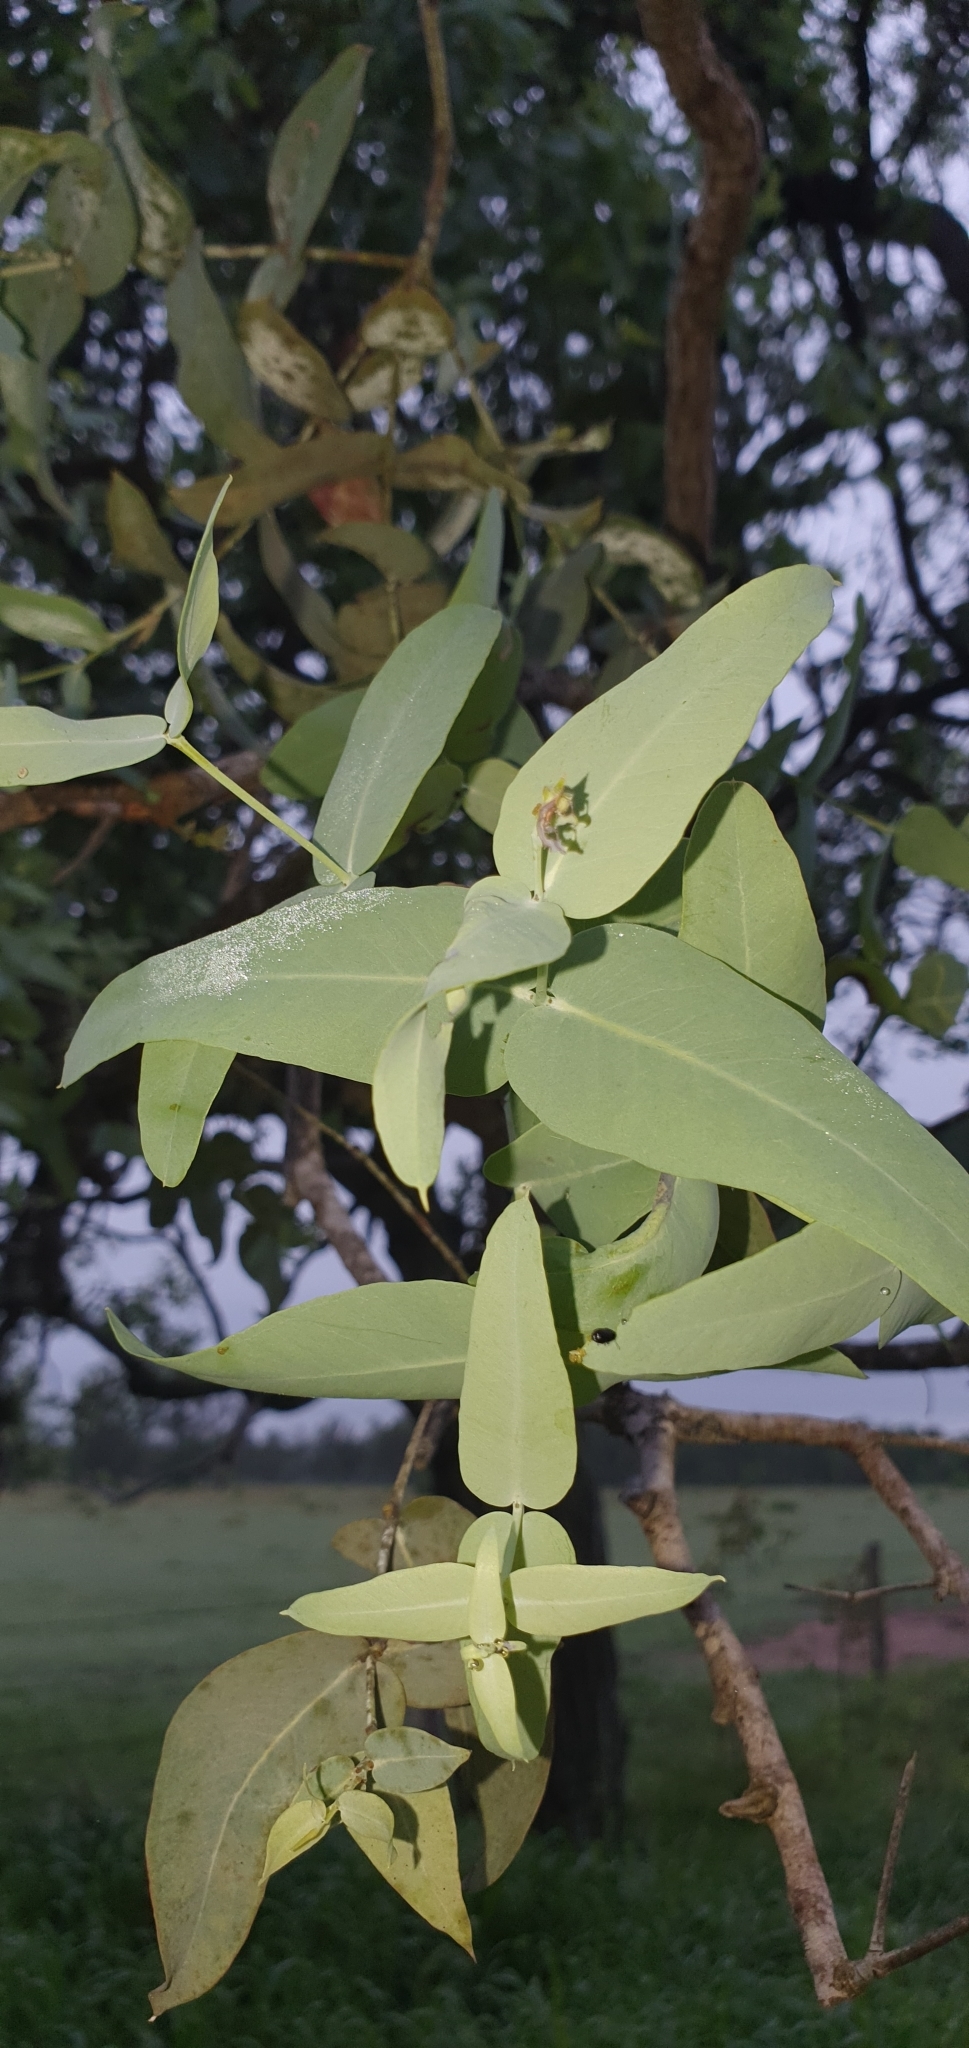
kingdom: Plantae
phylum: Tracheophyta
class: Magnoliopsida
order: Myrtales
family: Myrtaceae
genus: Eucalyptus
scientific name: Eucalyptus melanophloia
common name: Silver-leaved-ironbark
